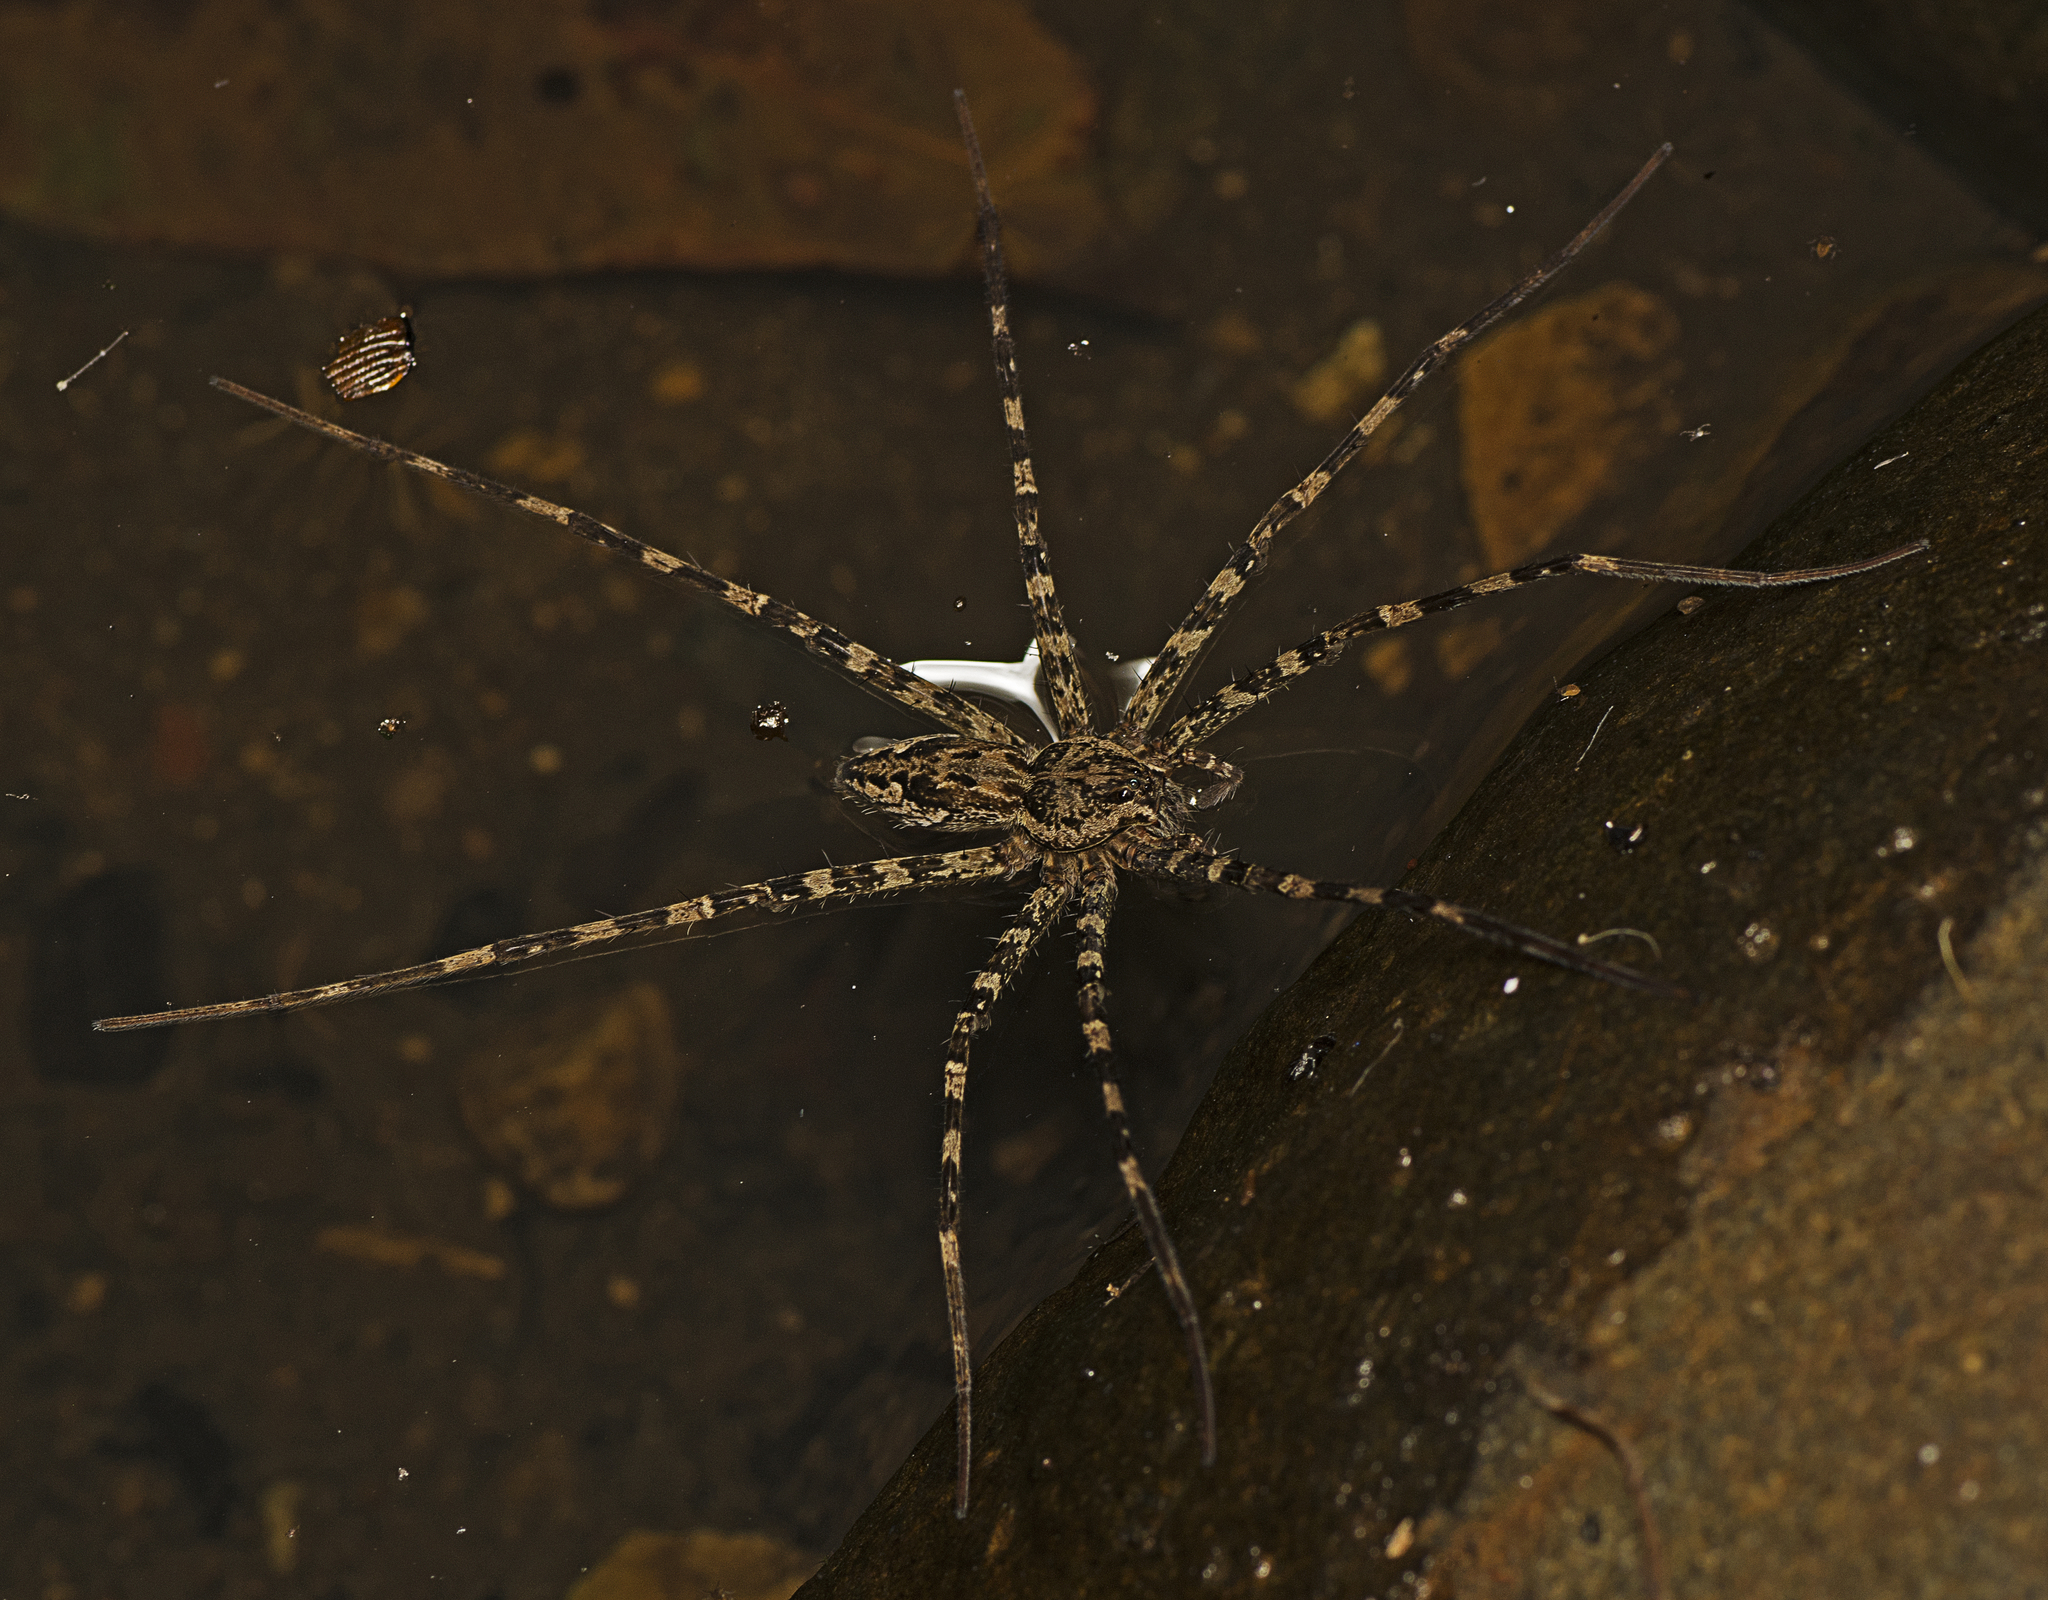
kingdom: Animalia
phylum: Arthropoda
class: Arachnida
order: Araneae
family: Pisauridae
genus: Megadolomedes
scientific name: Megadolomedes trux
